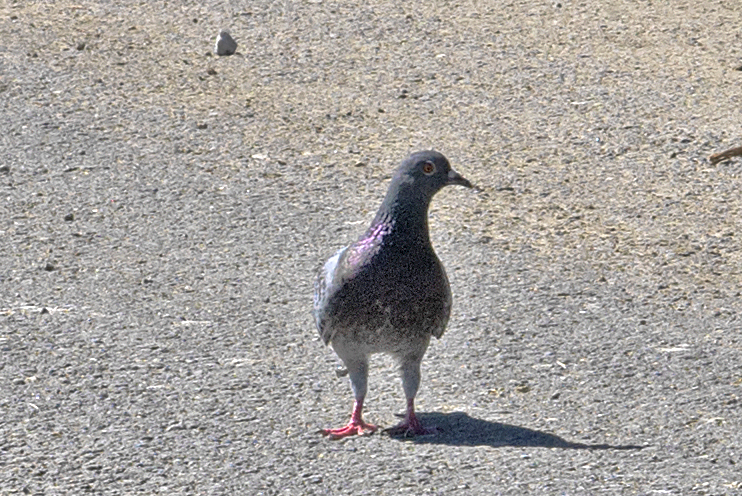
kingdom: Animalia
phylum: Chordata
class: Aves
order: Columbiformes
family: Columbidae
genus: Columba
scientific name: Columba livia
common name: Rock pigeon
